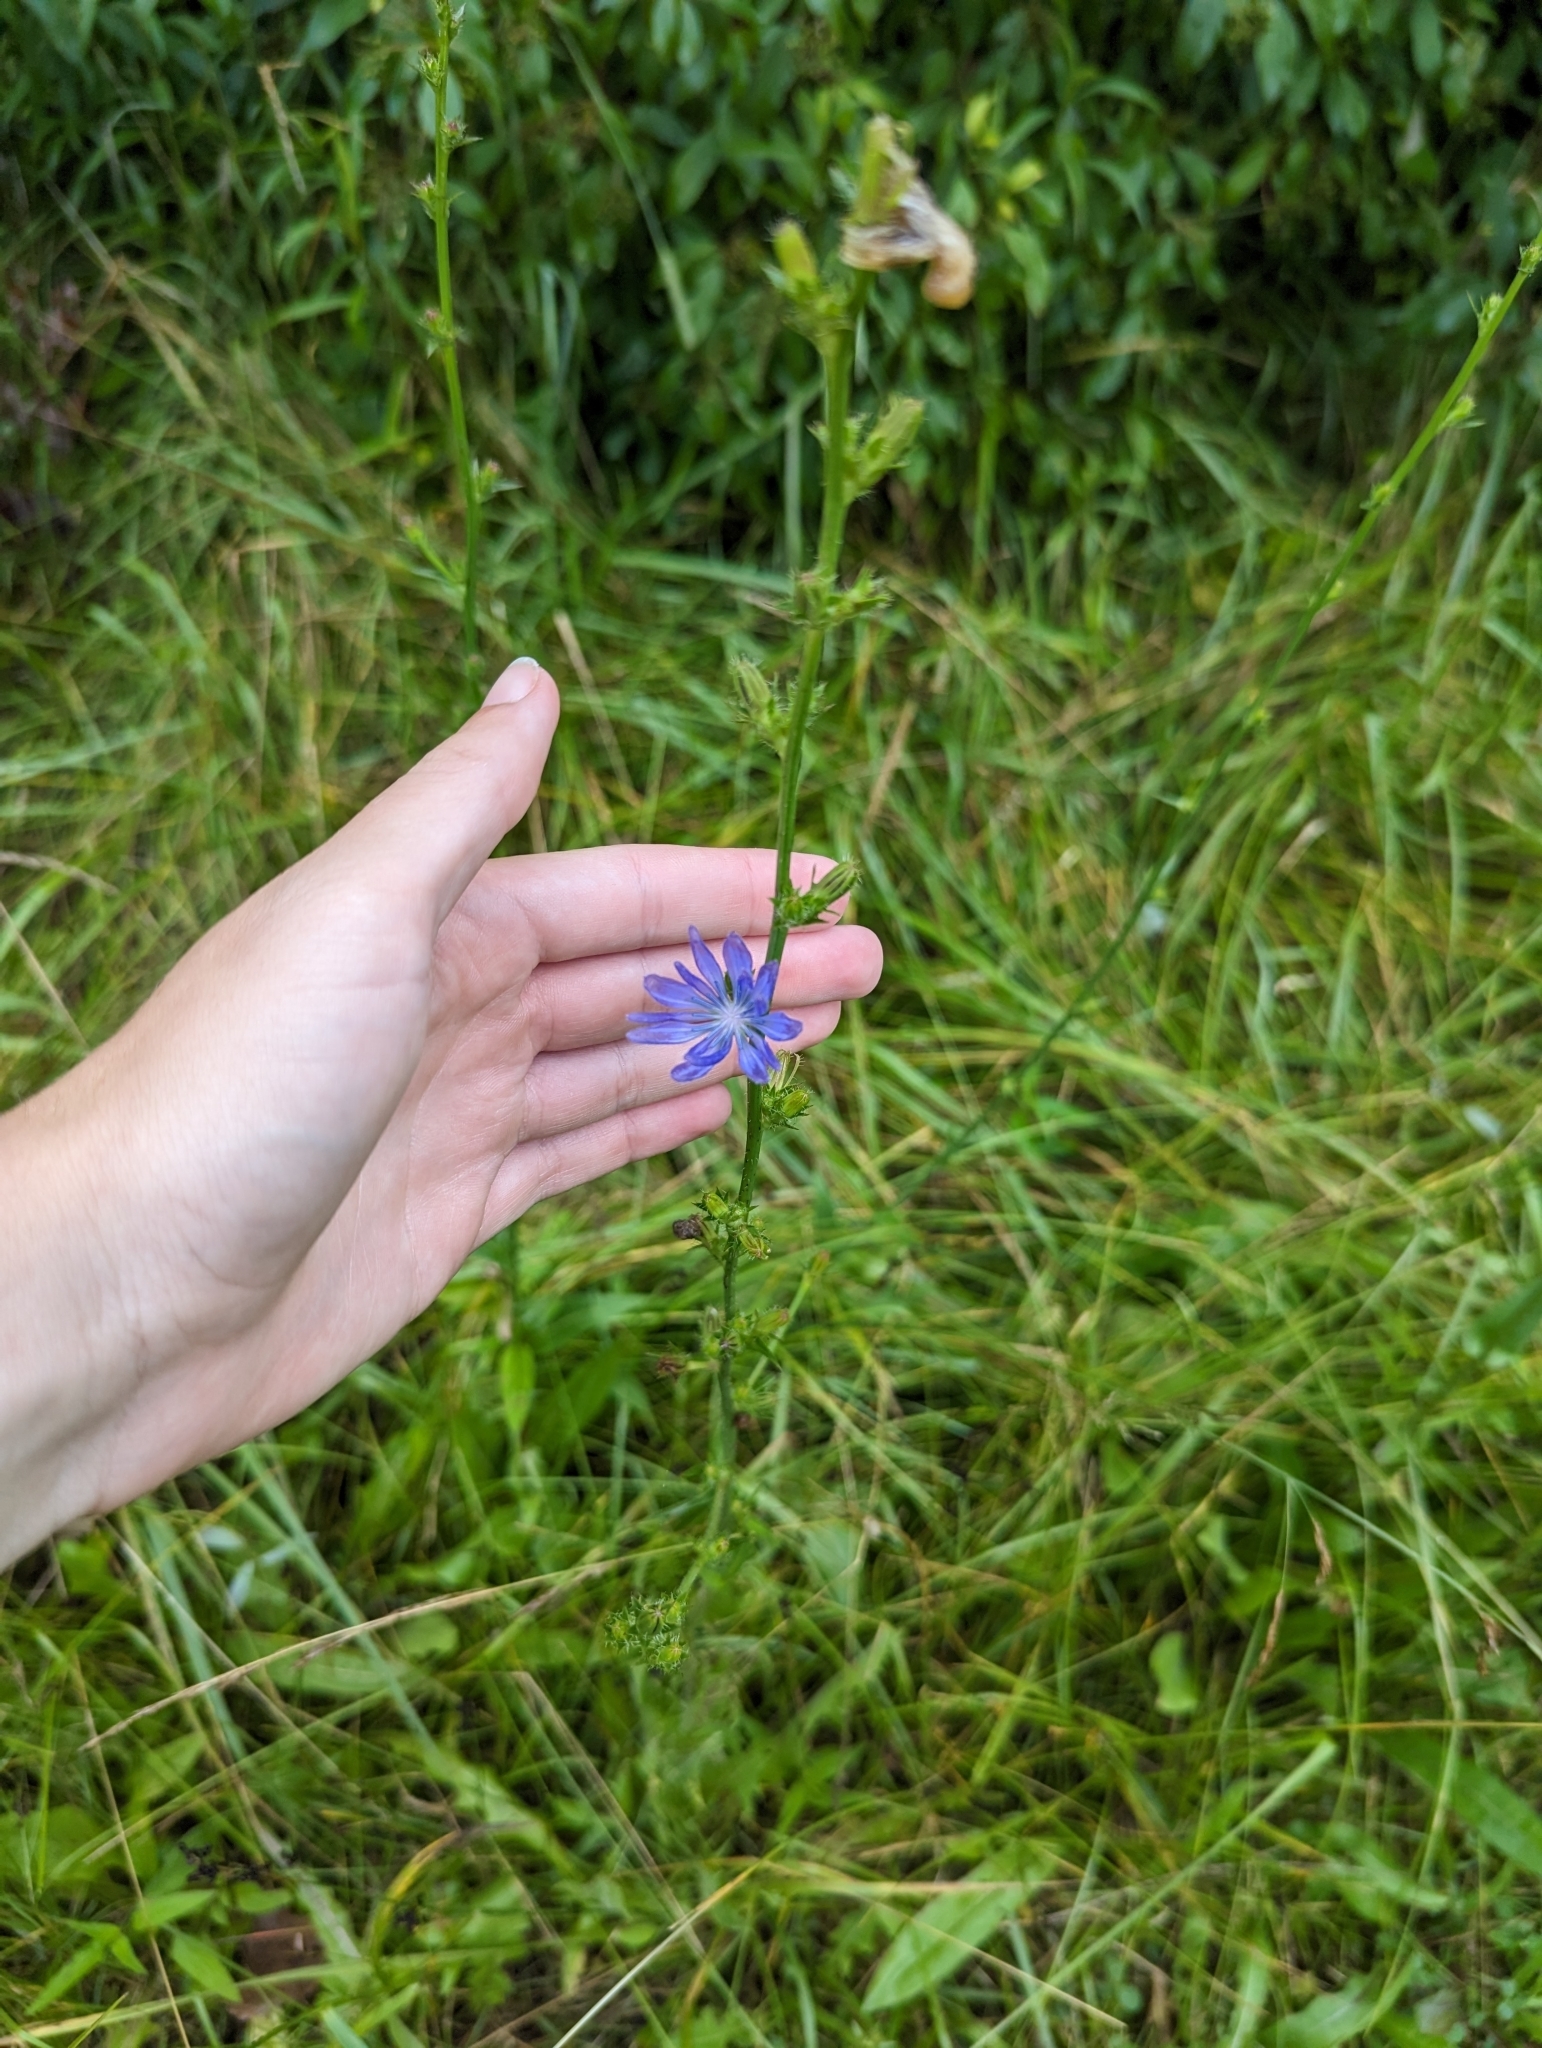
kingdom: Plantae
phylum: Tracheophyta
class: Magnoliopsida
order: Asterales
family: Asteraceae
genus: Cichorium
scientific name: Cichorium intybus
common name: Chicory
